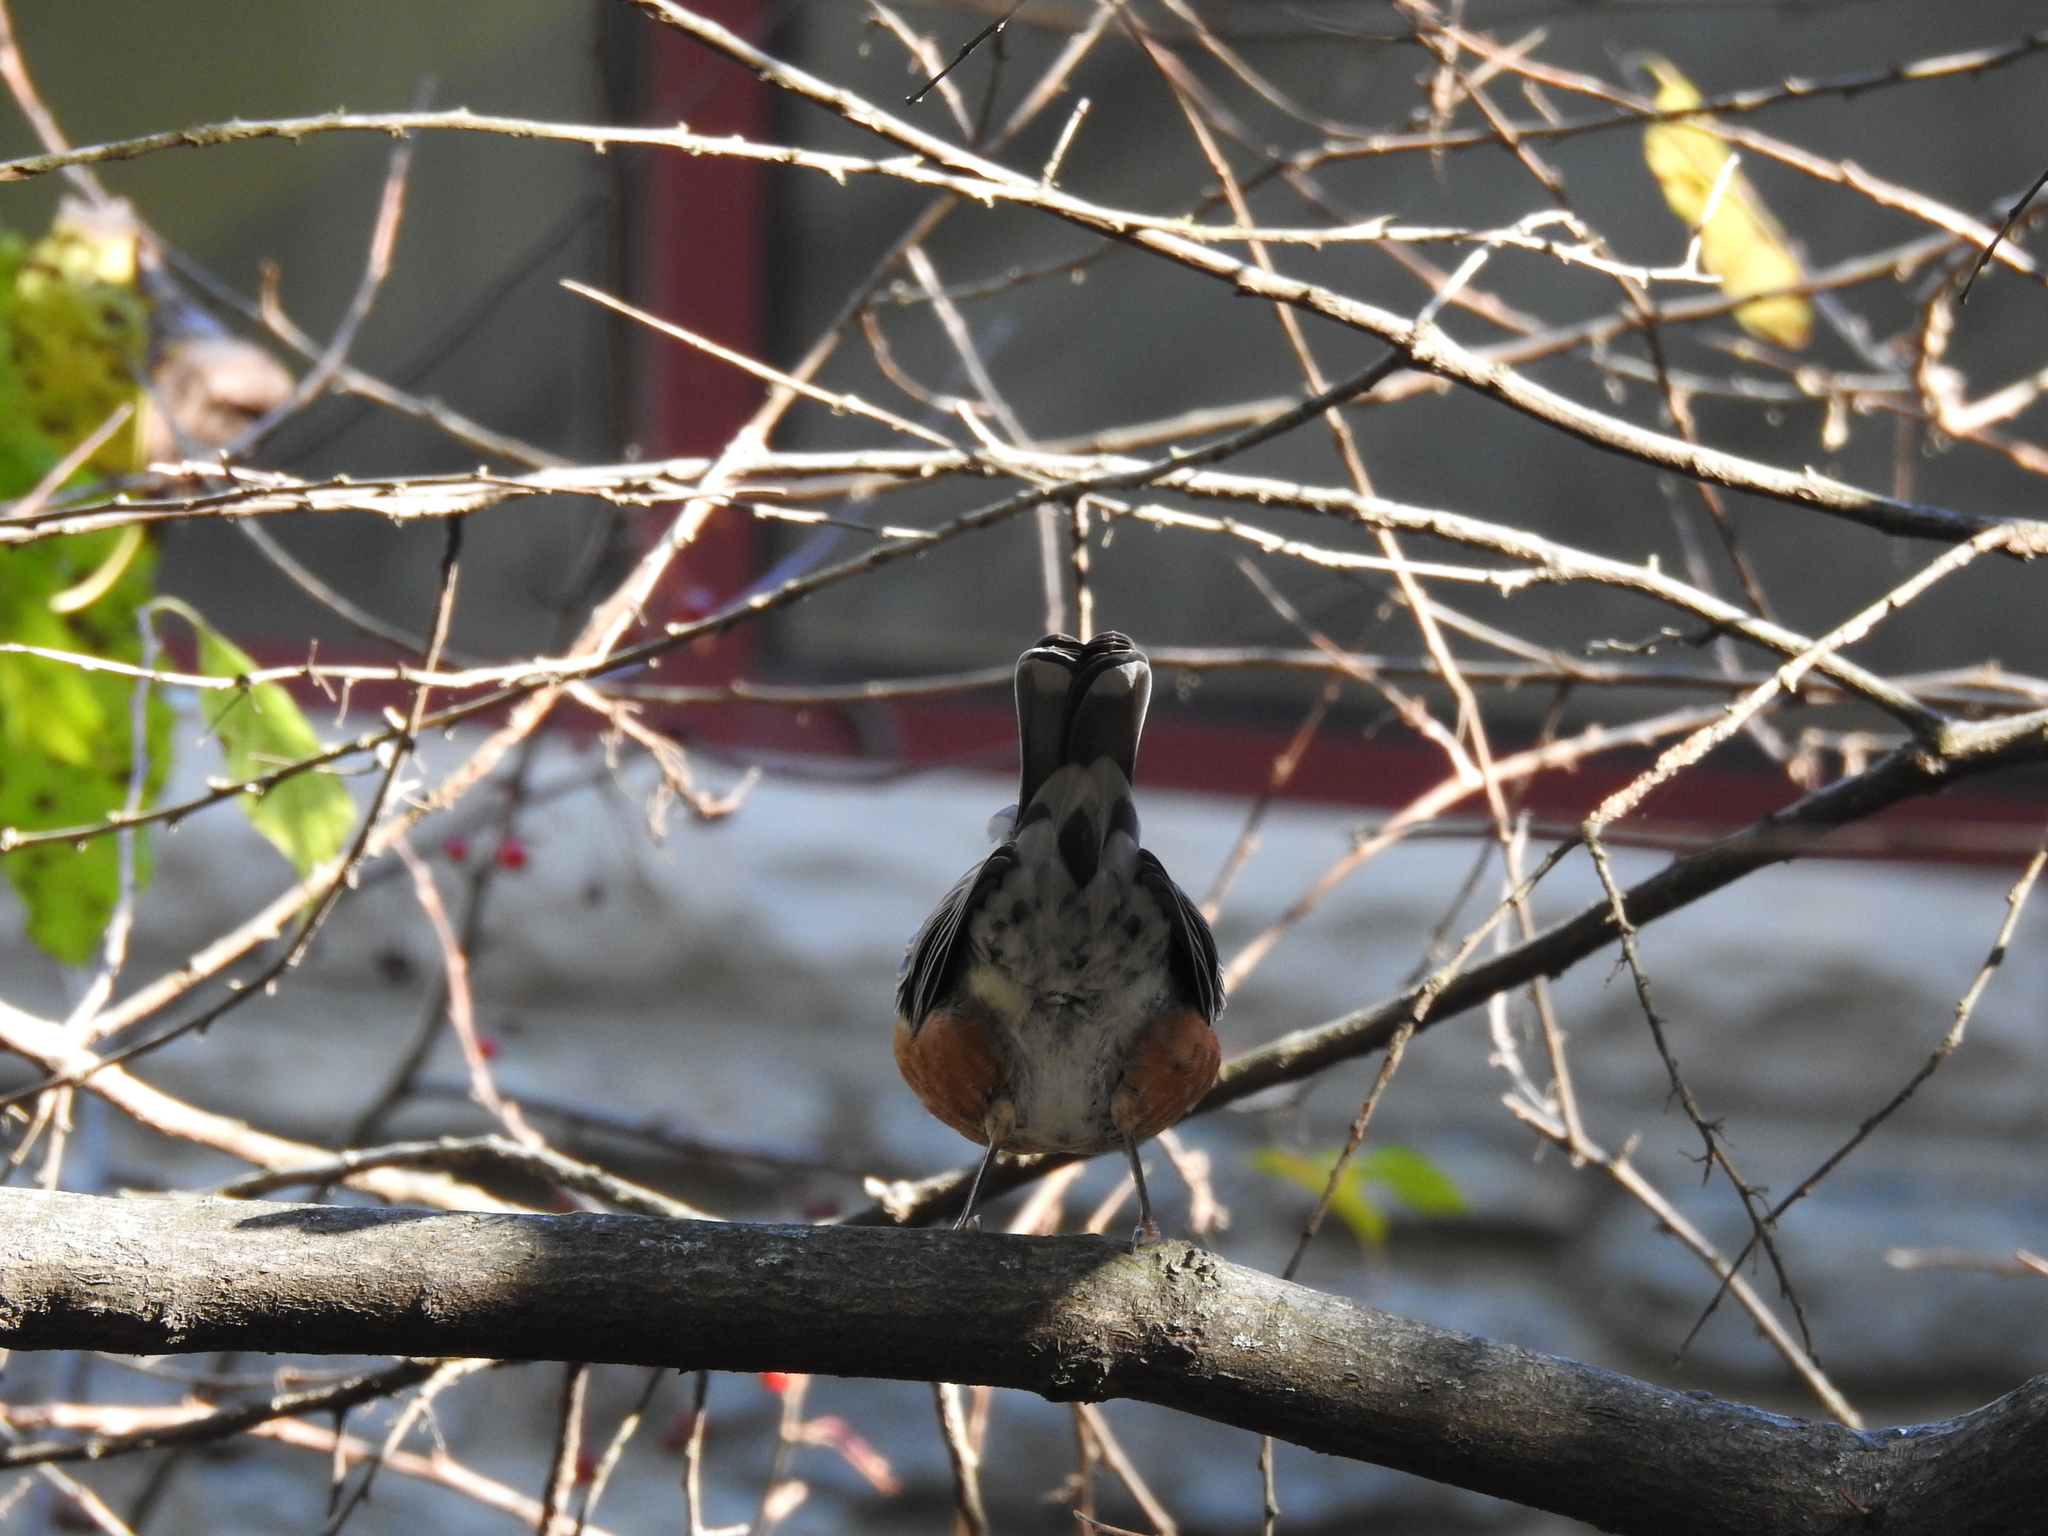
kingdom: Animalia
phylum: Chordata
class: Aves
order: Passeriformes
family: Turdidae
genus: Turdus
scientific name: Turdus migratorius
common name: American robin
